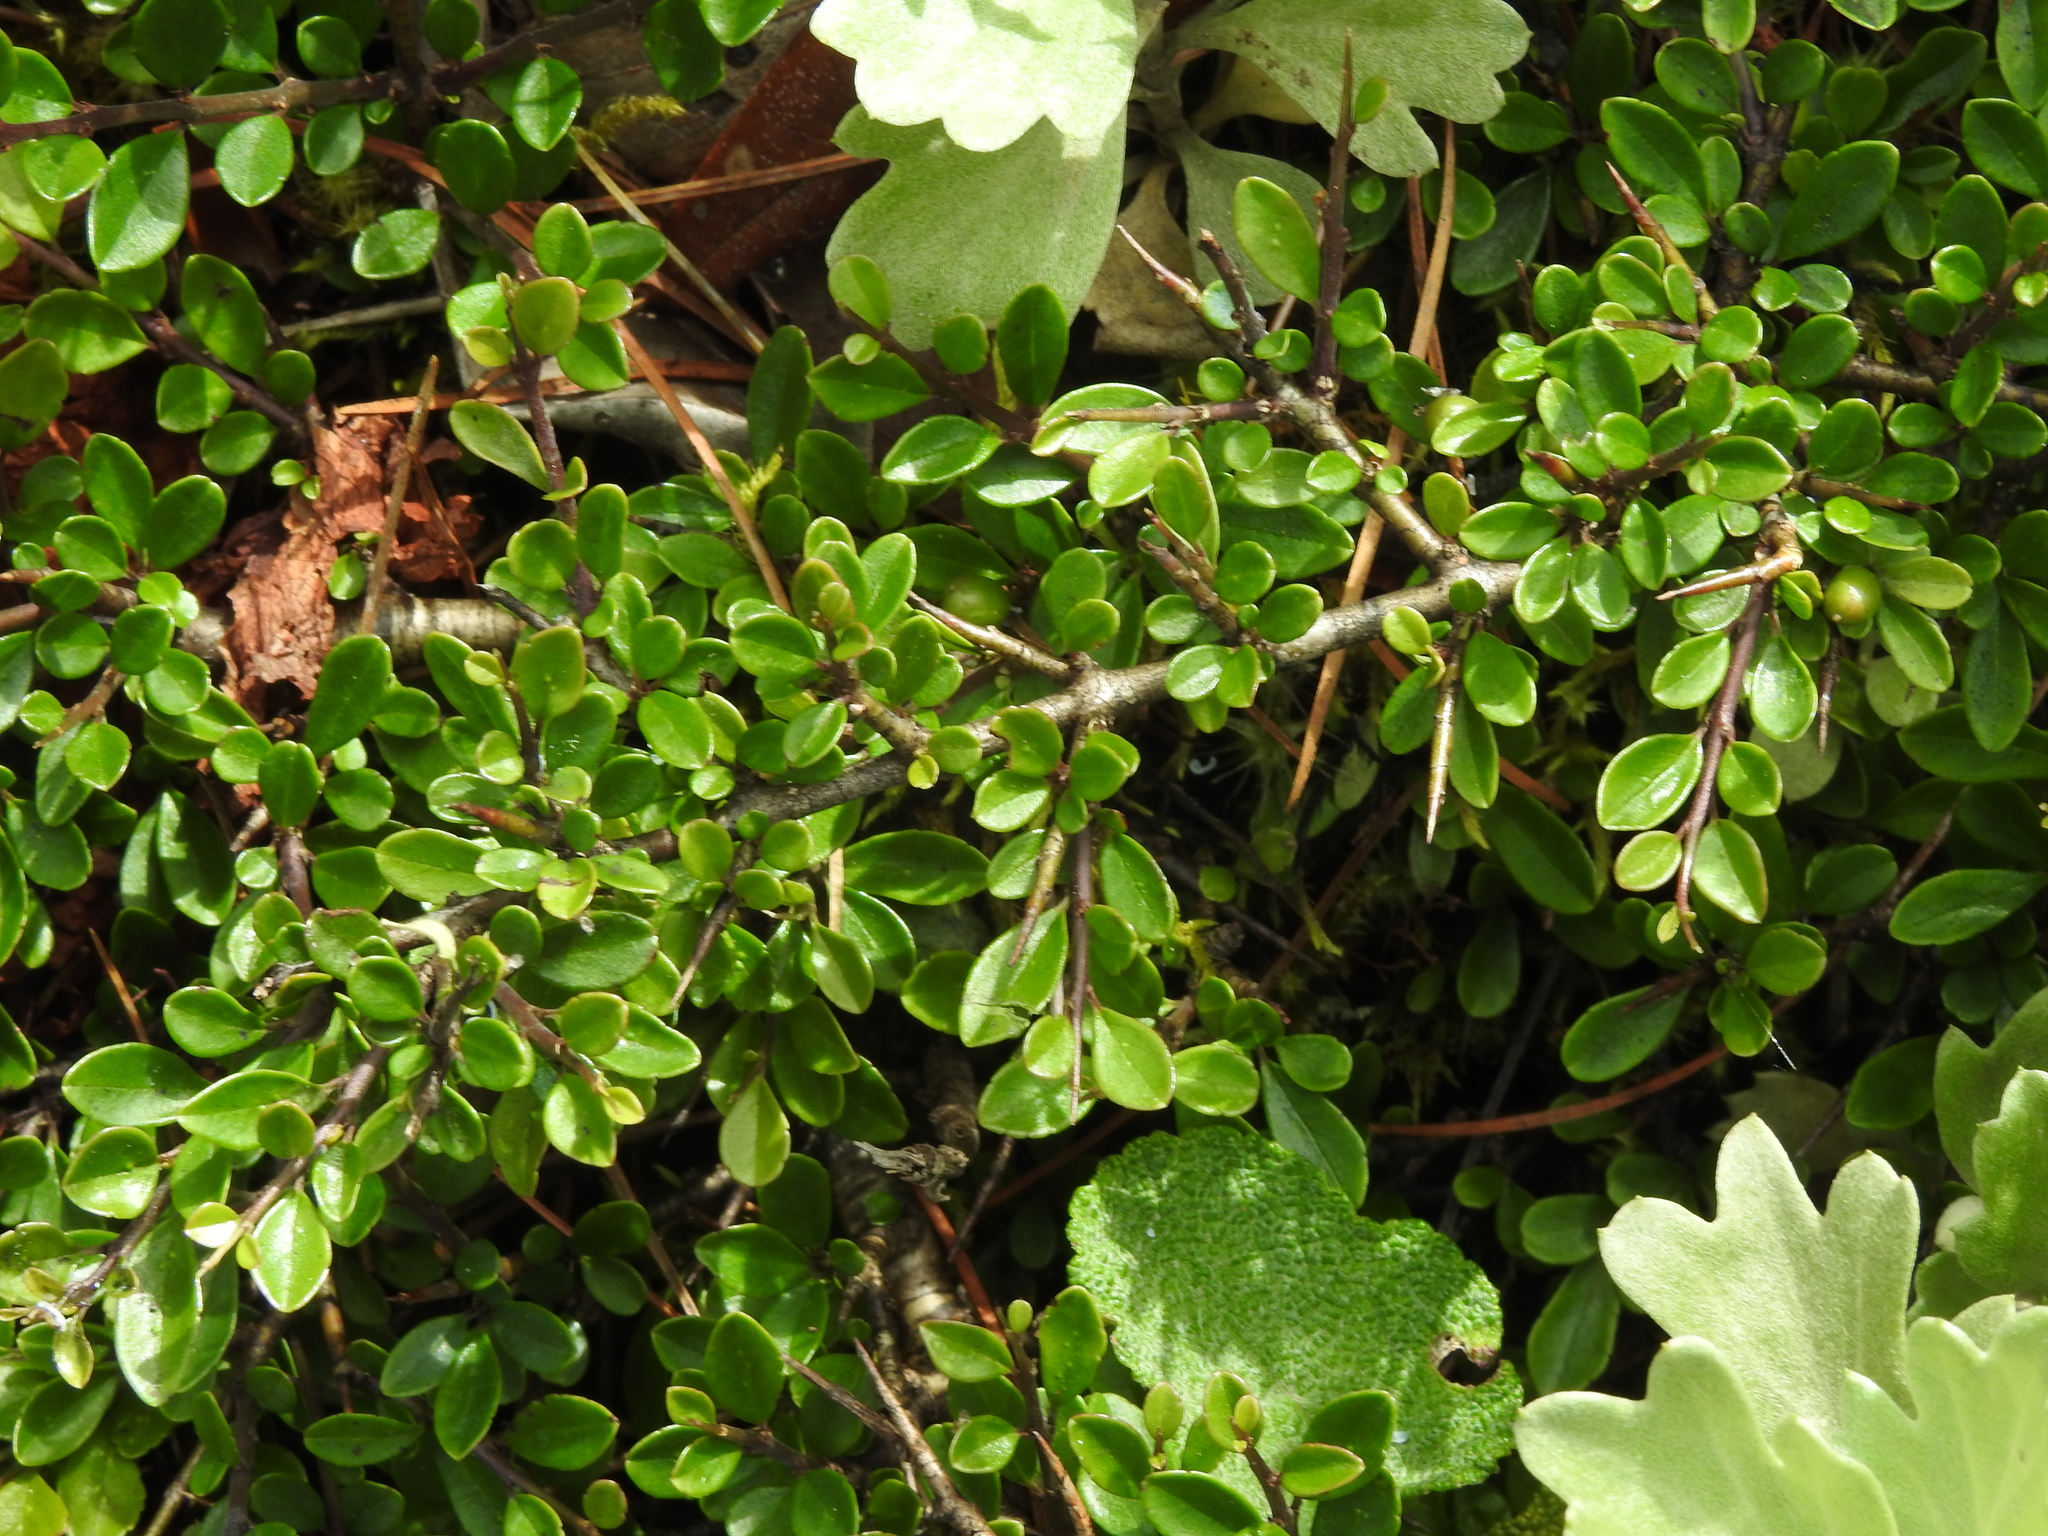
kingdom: Plantae
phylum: Tracheophyta
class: Magnoliopsida
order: Rosales
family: Rhamnaceae
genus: Rhamnus
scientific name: Rhamnus kanagusukii
